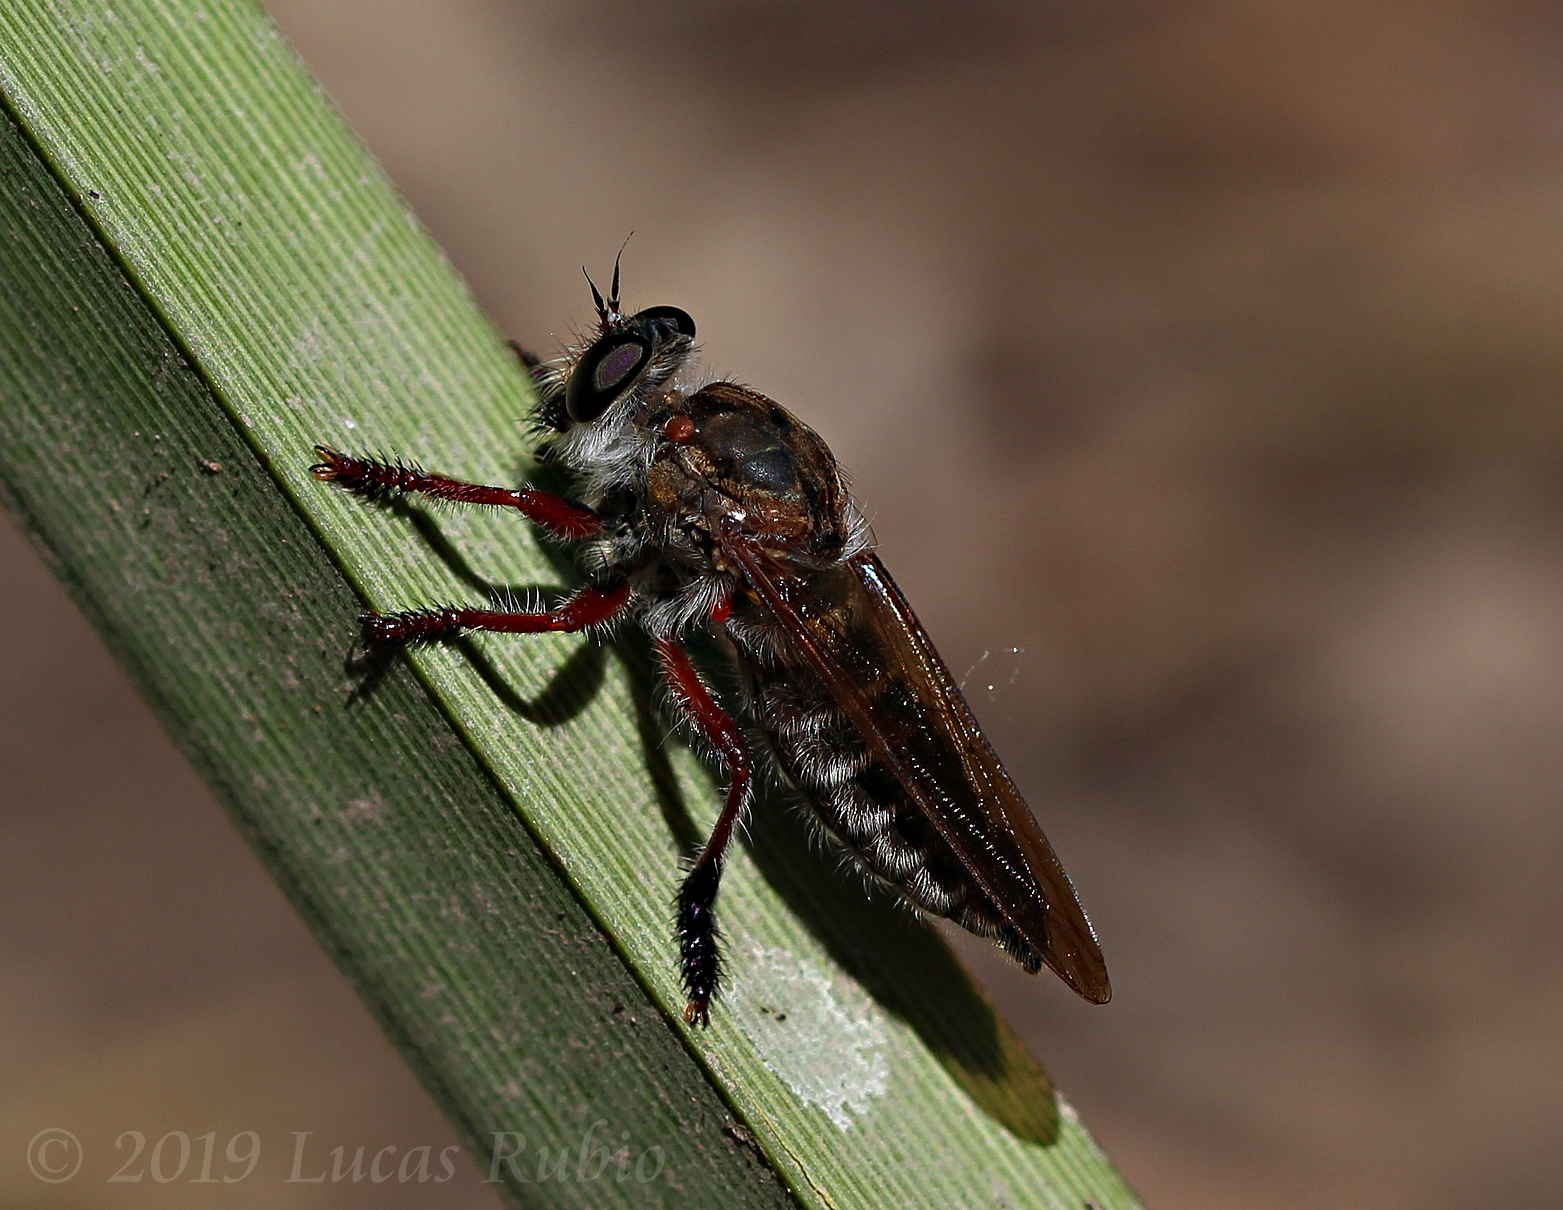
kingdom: Animalia
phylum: Arthropoda
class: Insecta
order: Diptera
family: Asilidae
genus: Mallophora
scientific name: Mallophora bigotii
